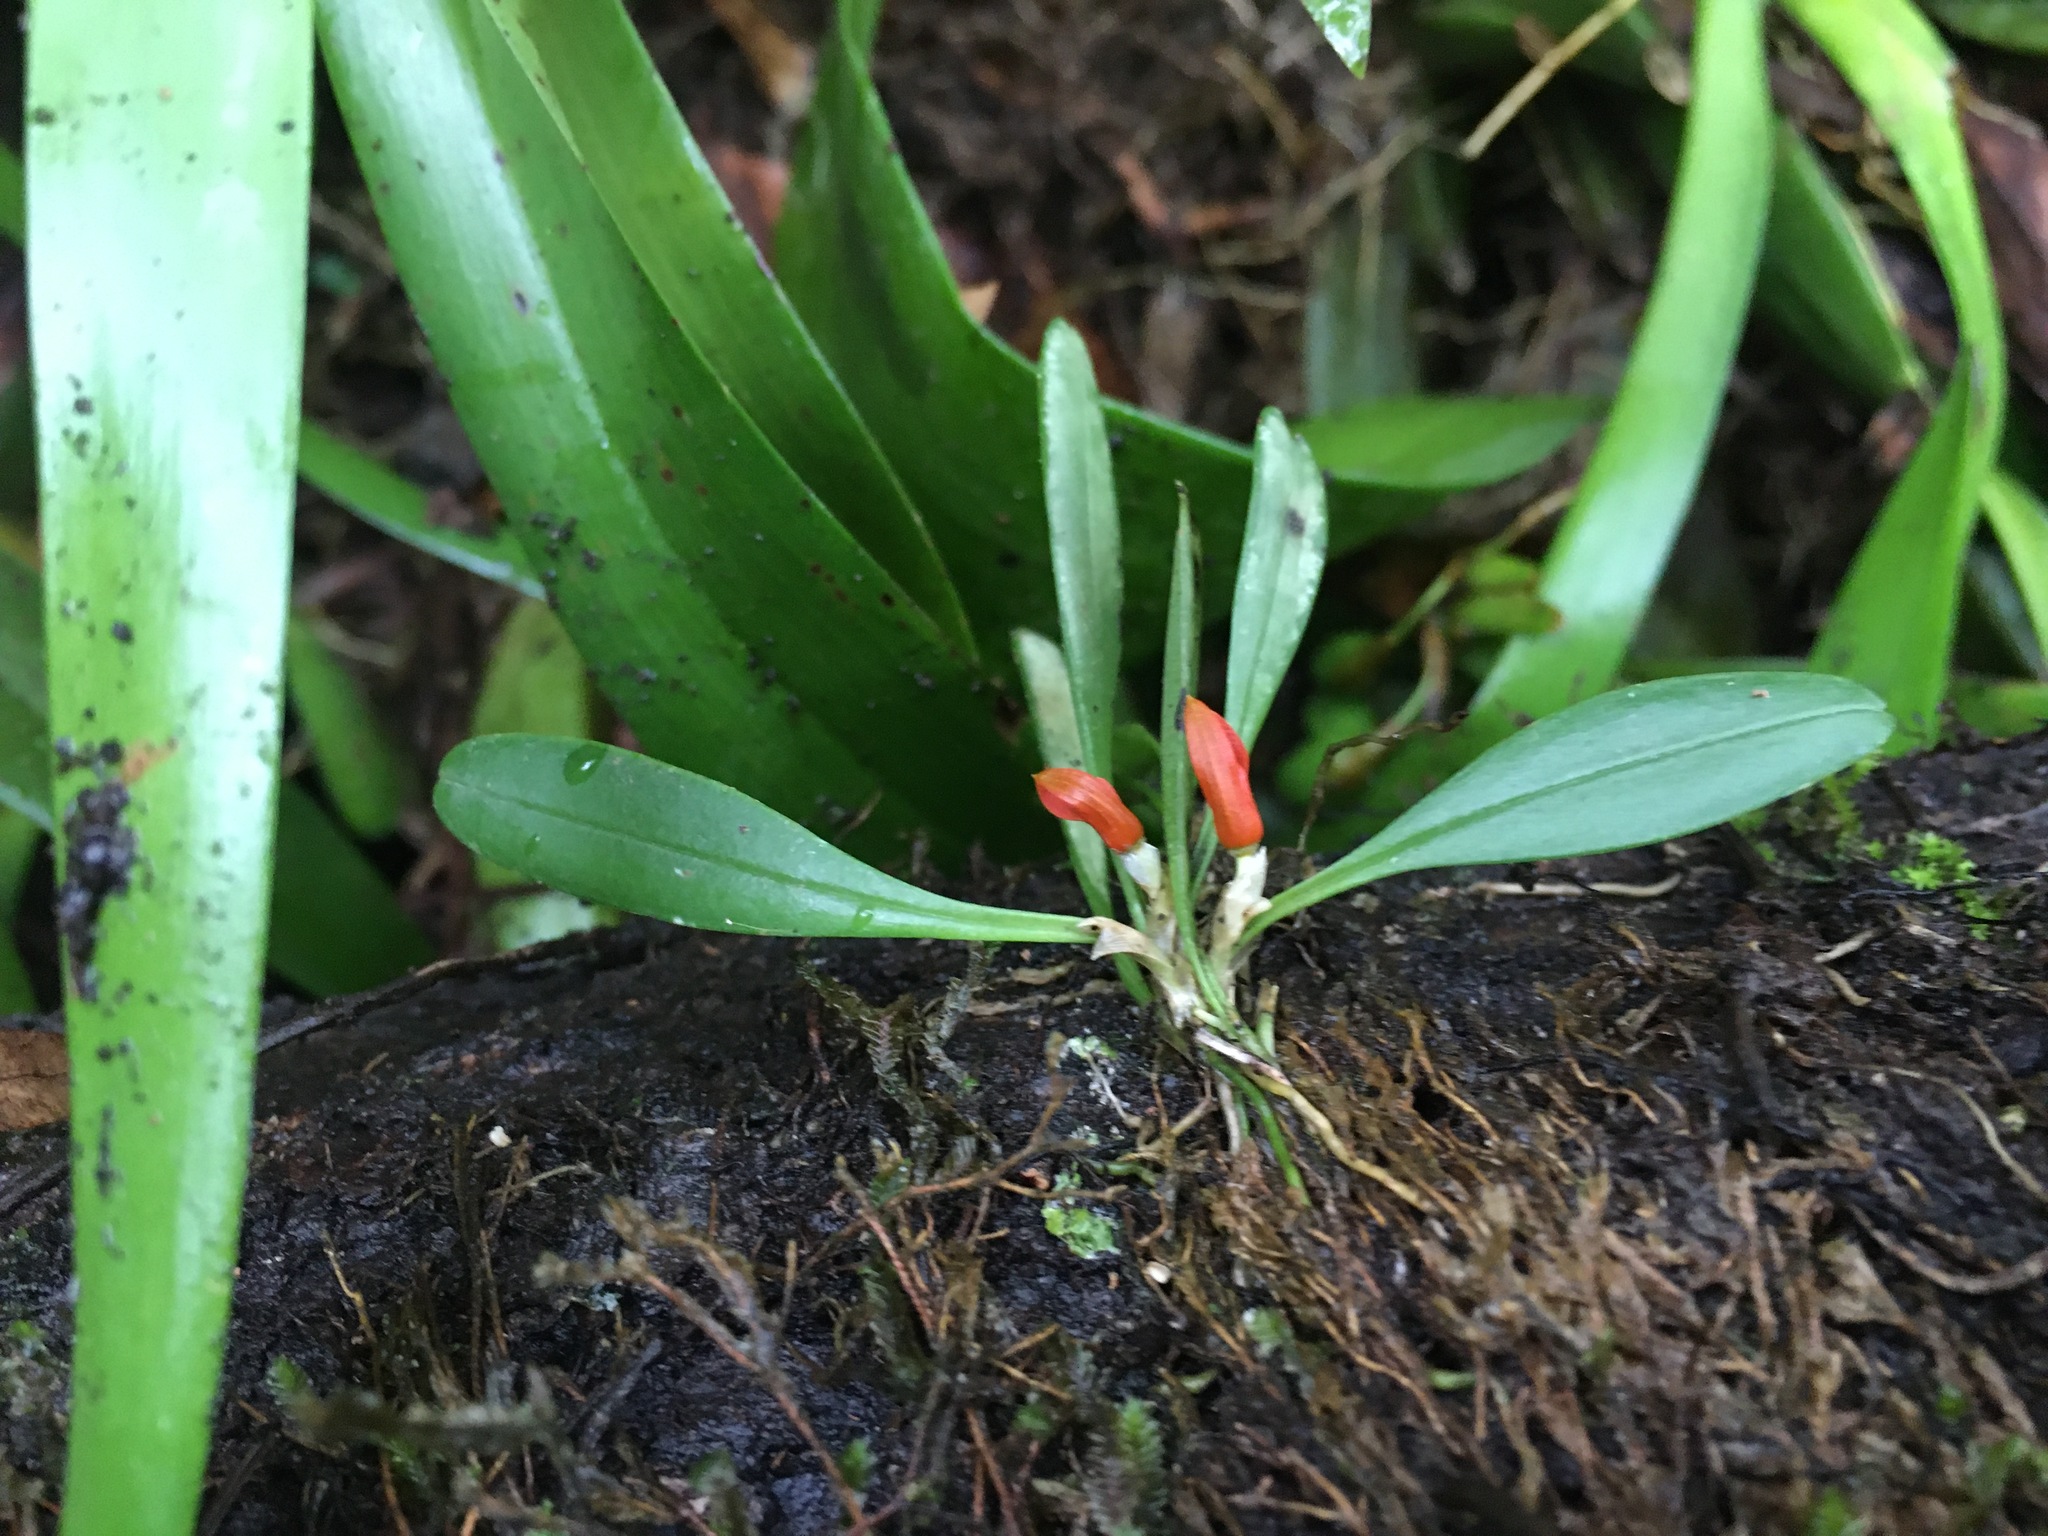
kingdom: Plantae
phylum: Tracheophyta
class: Liliopsida
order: Asparagales
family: Orchidaceae
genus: Specklinia
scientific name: Specklinia tribuloides
